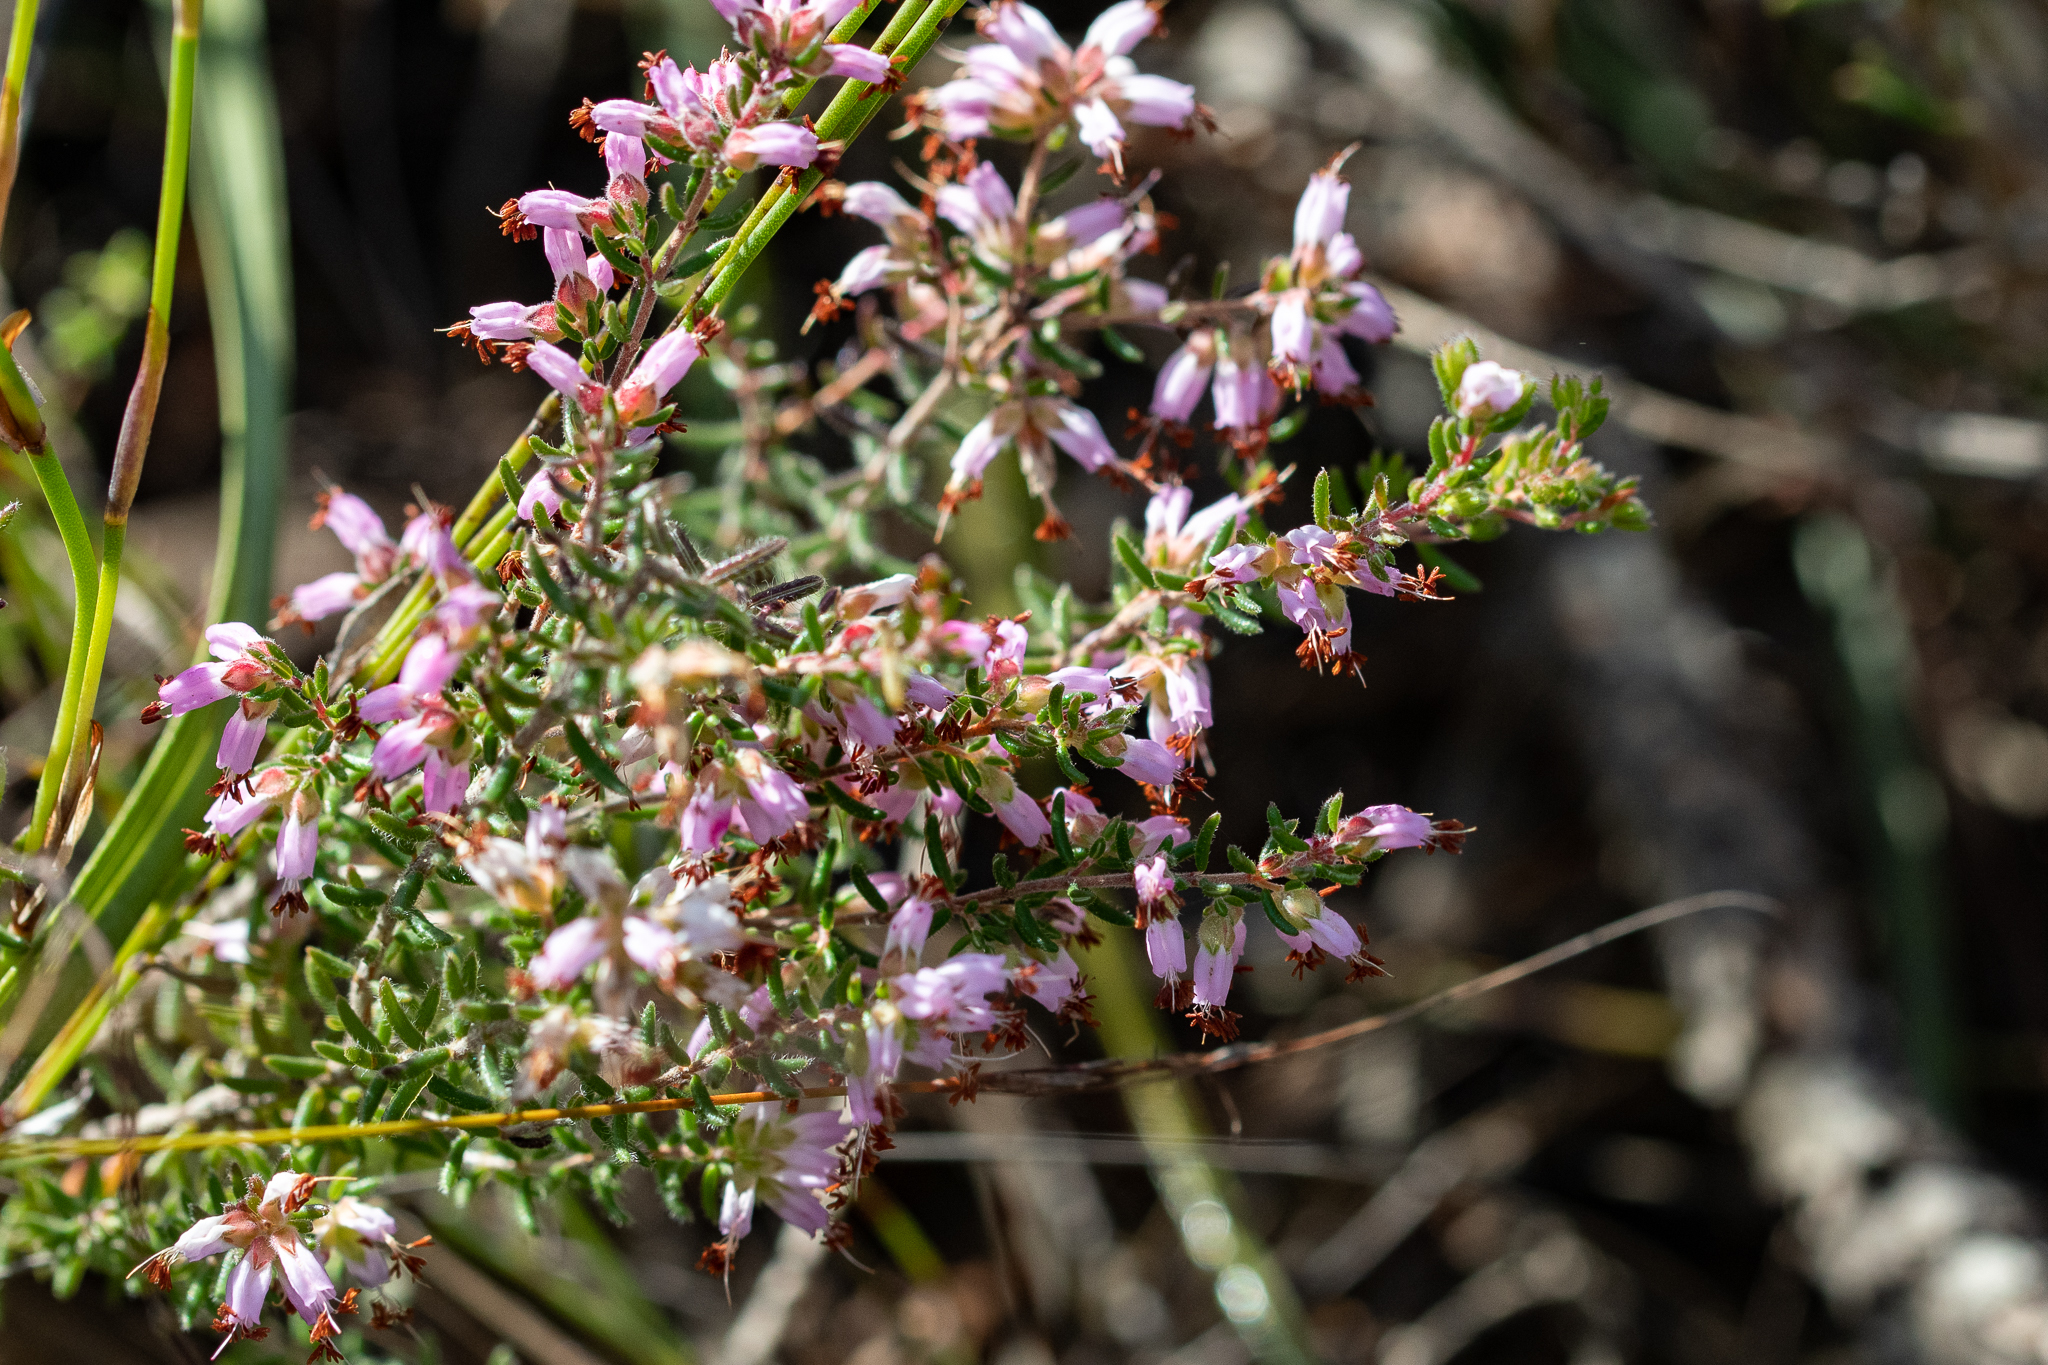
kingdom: Plantae
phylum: Tracheophyta
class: Magnoliopsida
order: Ericales
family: Ericaceae
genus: Erica
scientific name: Erica karwyderi
